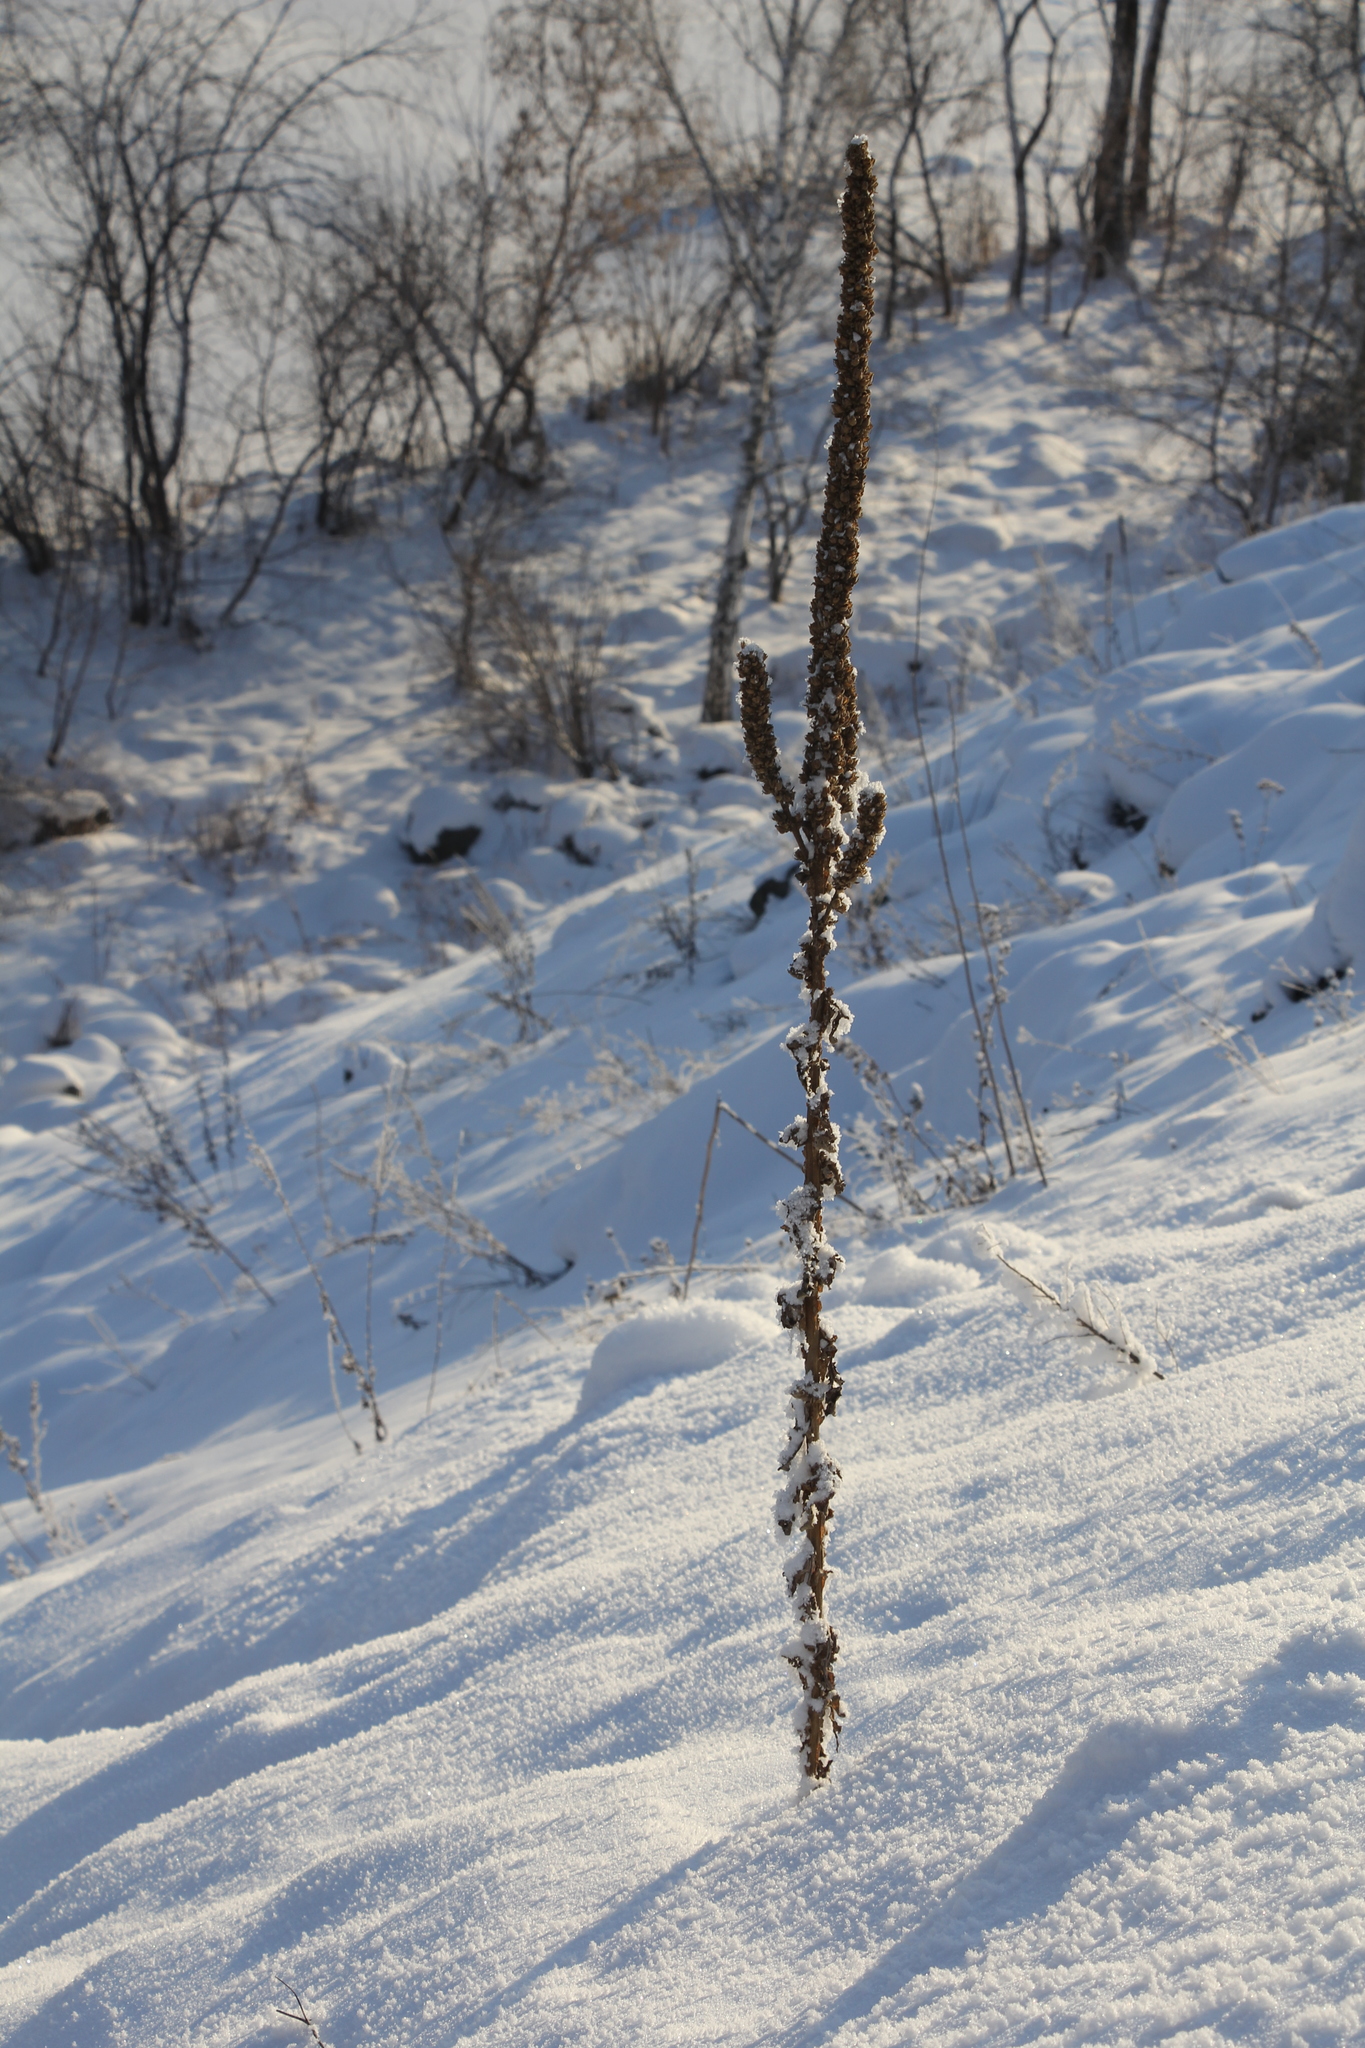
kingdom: Plantae
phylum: Tracheophyta
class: Magnoliopsida
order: Lamiales
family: Scrophulariaceae
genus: Verbascum
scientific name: Verbascum thapsus
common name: Common mullein
